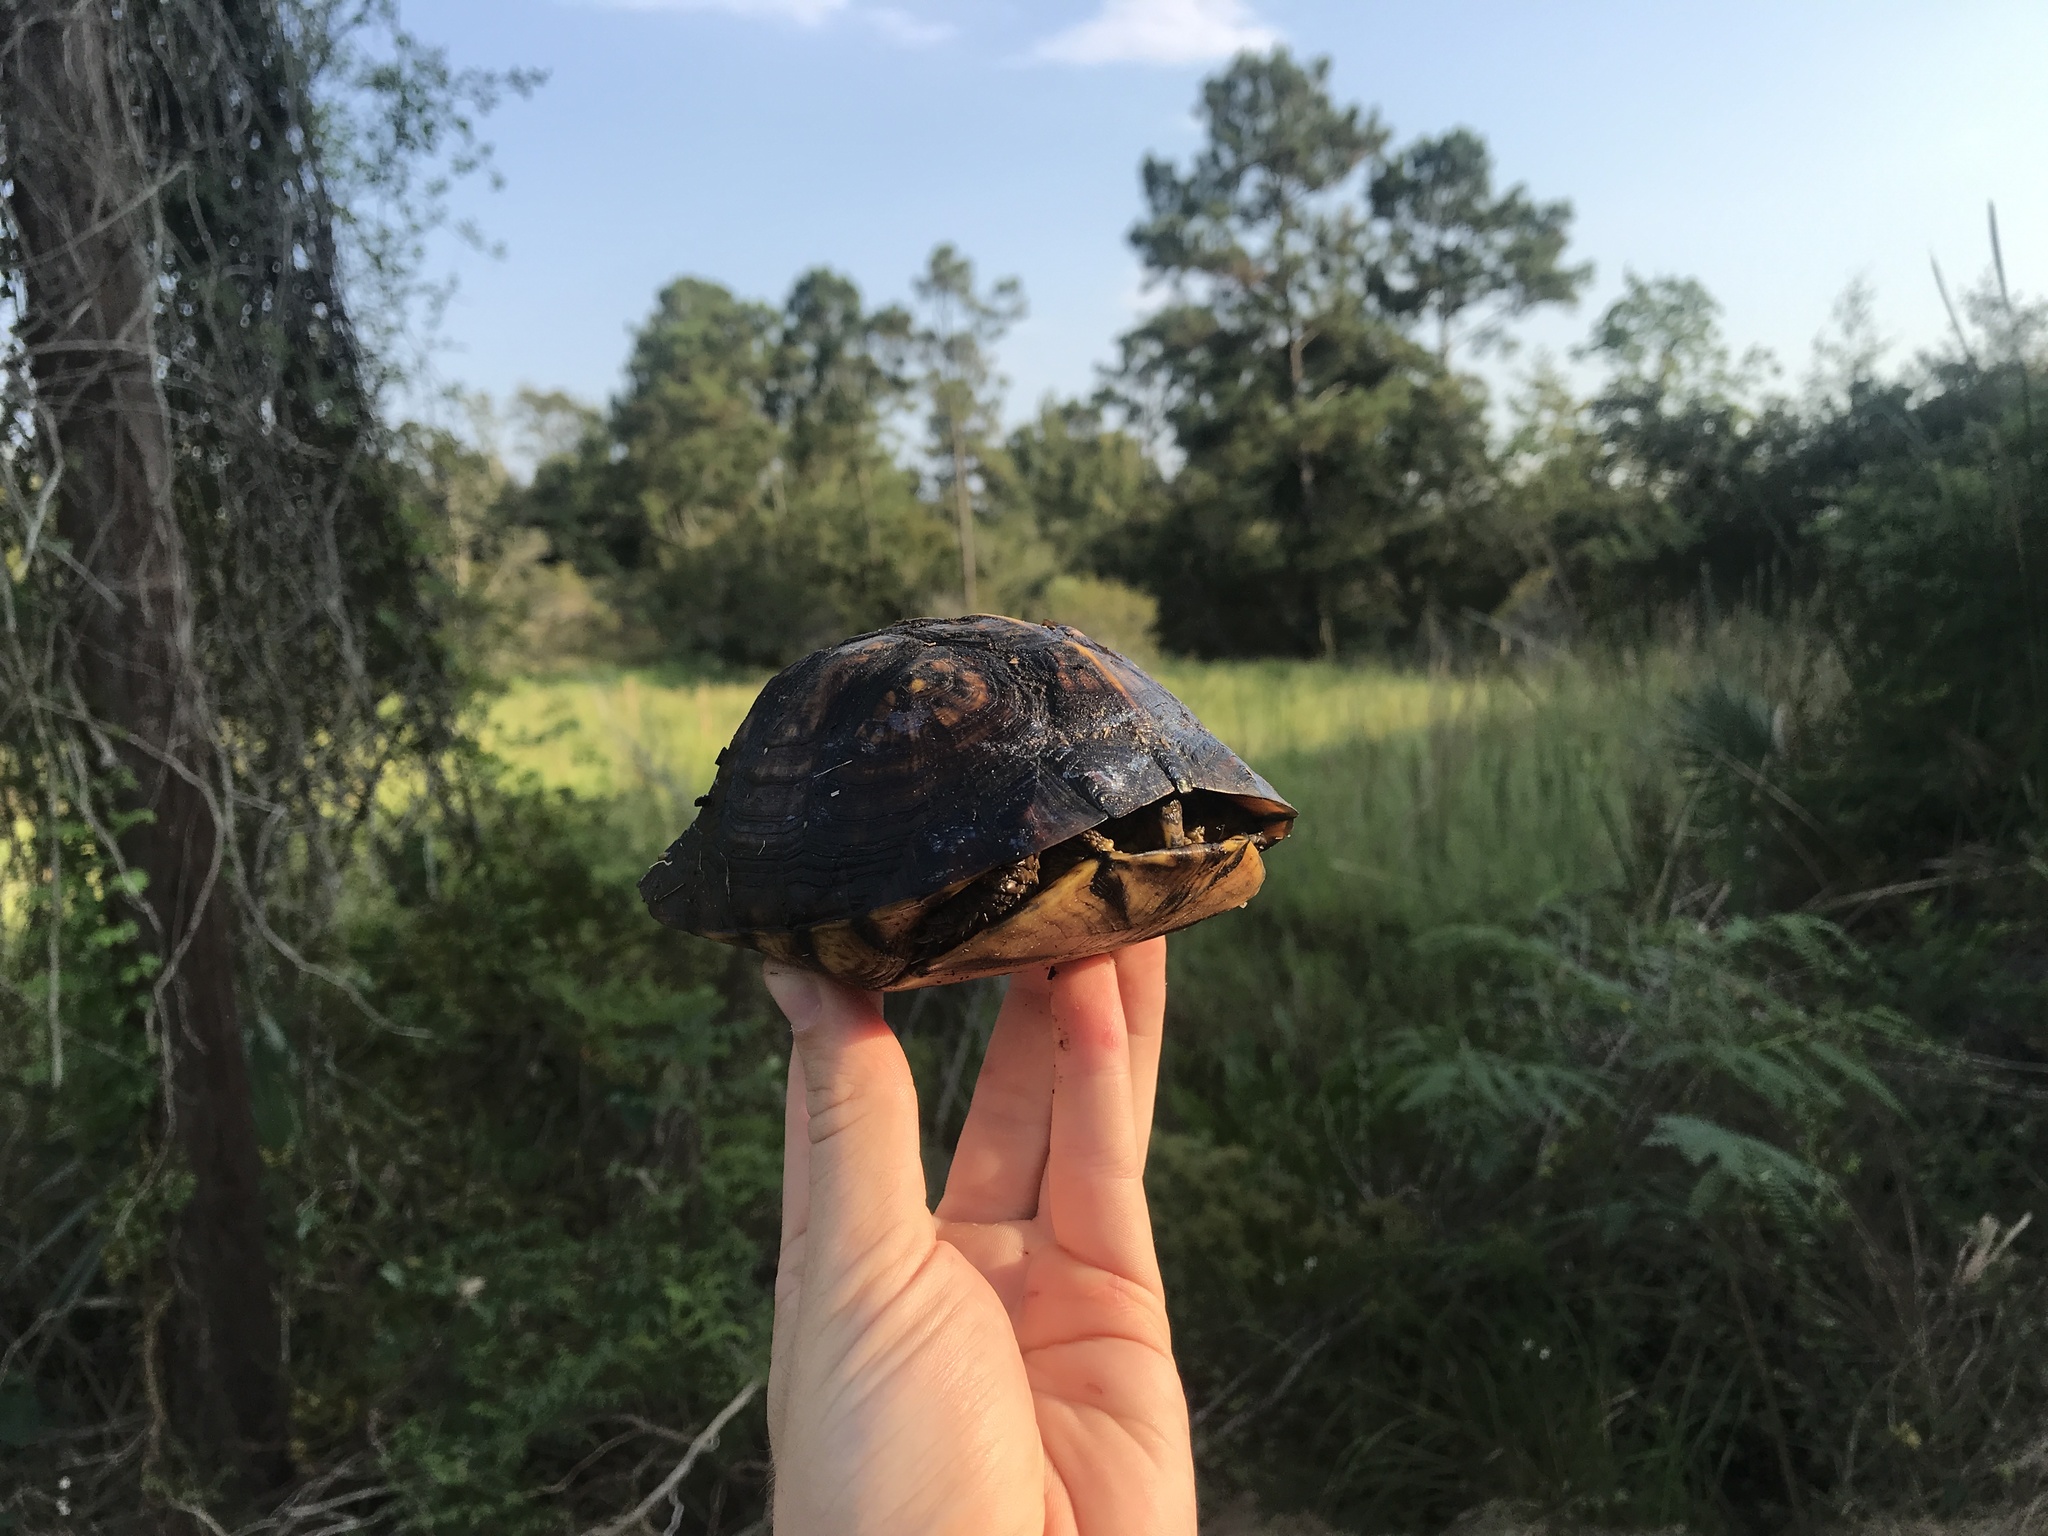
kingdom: Animalia
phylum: Chordata
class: Testudines
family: Emydidae
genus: Terrapene
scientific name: Terrapene carolina
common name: Common box turtle
